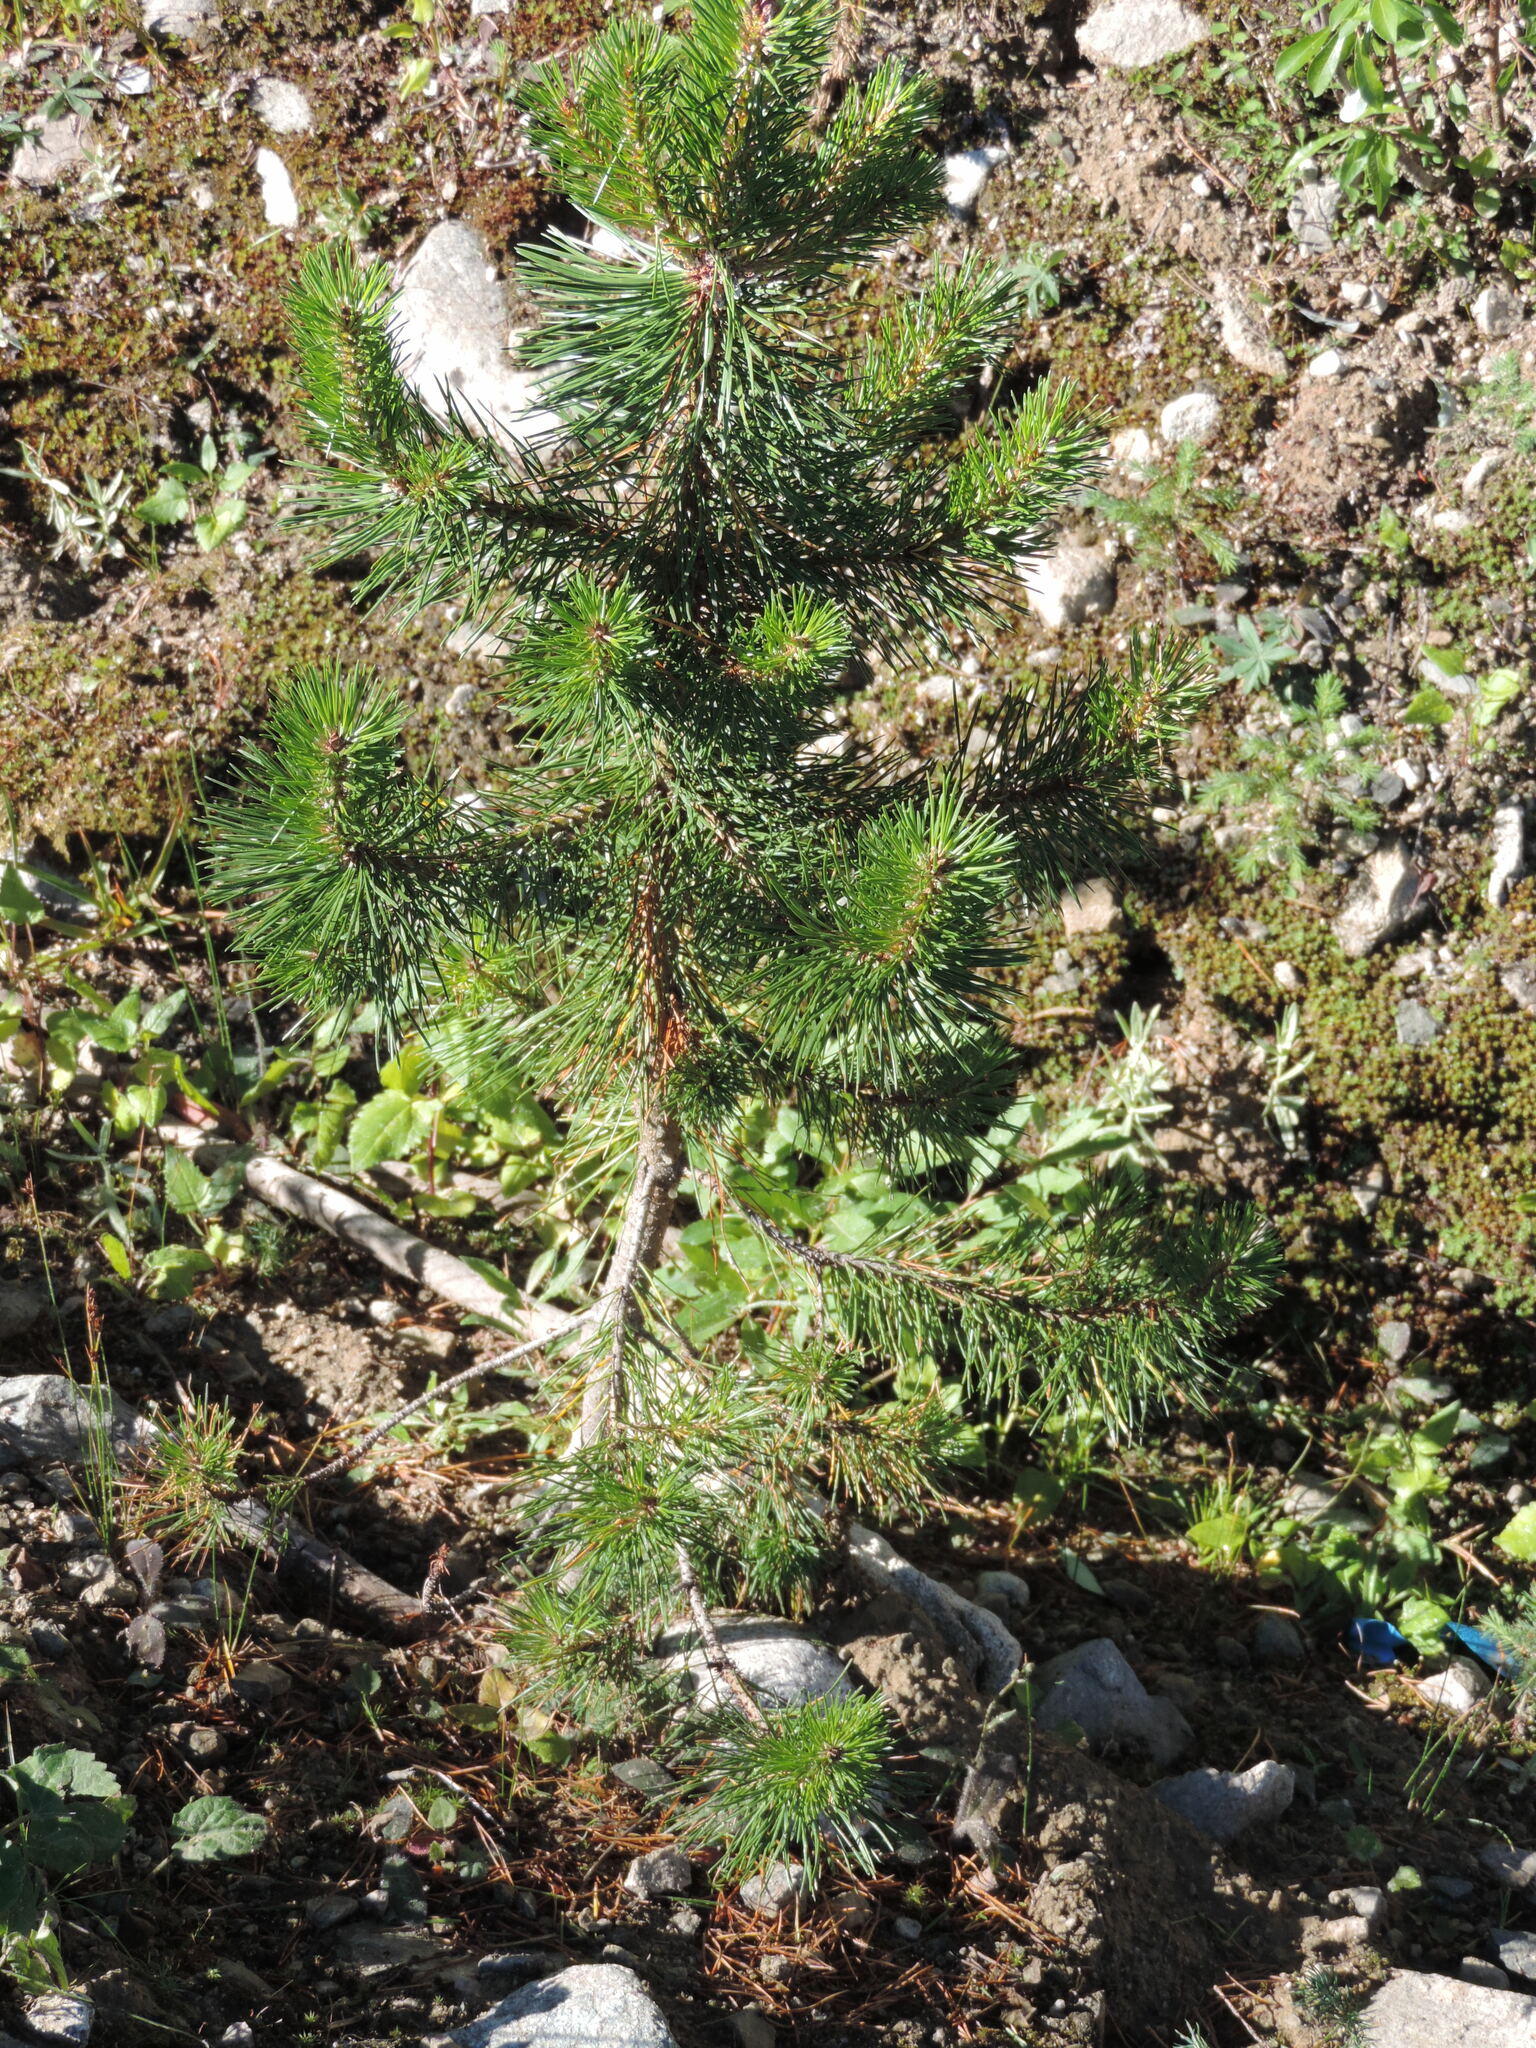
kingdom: Plantae
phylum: Tracheophyta
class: Pinopsida
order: Pinales
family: Pinaceae
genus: Pinus
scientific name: Pinus contorta
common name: Lodgepole pine
